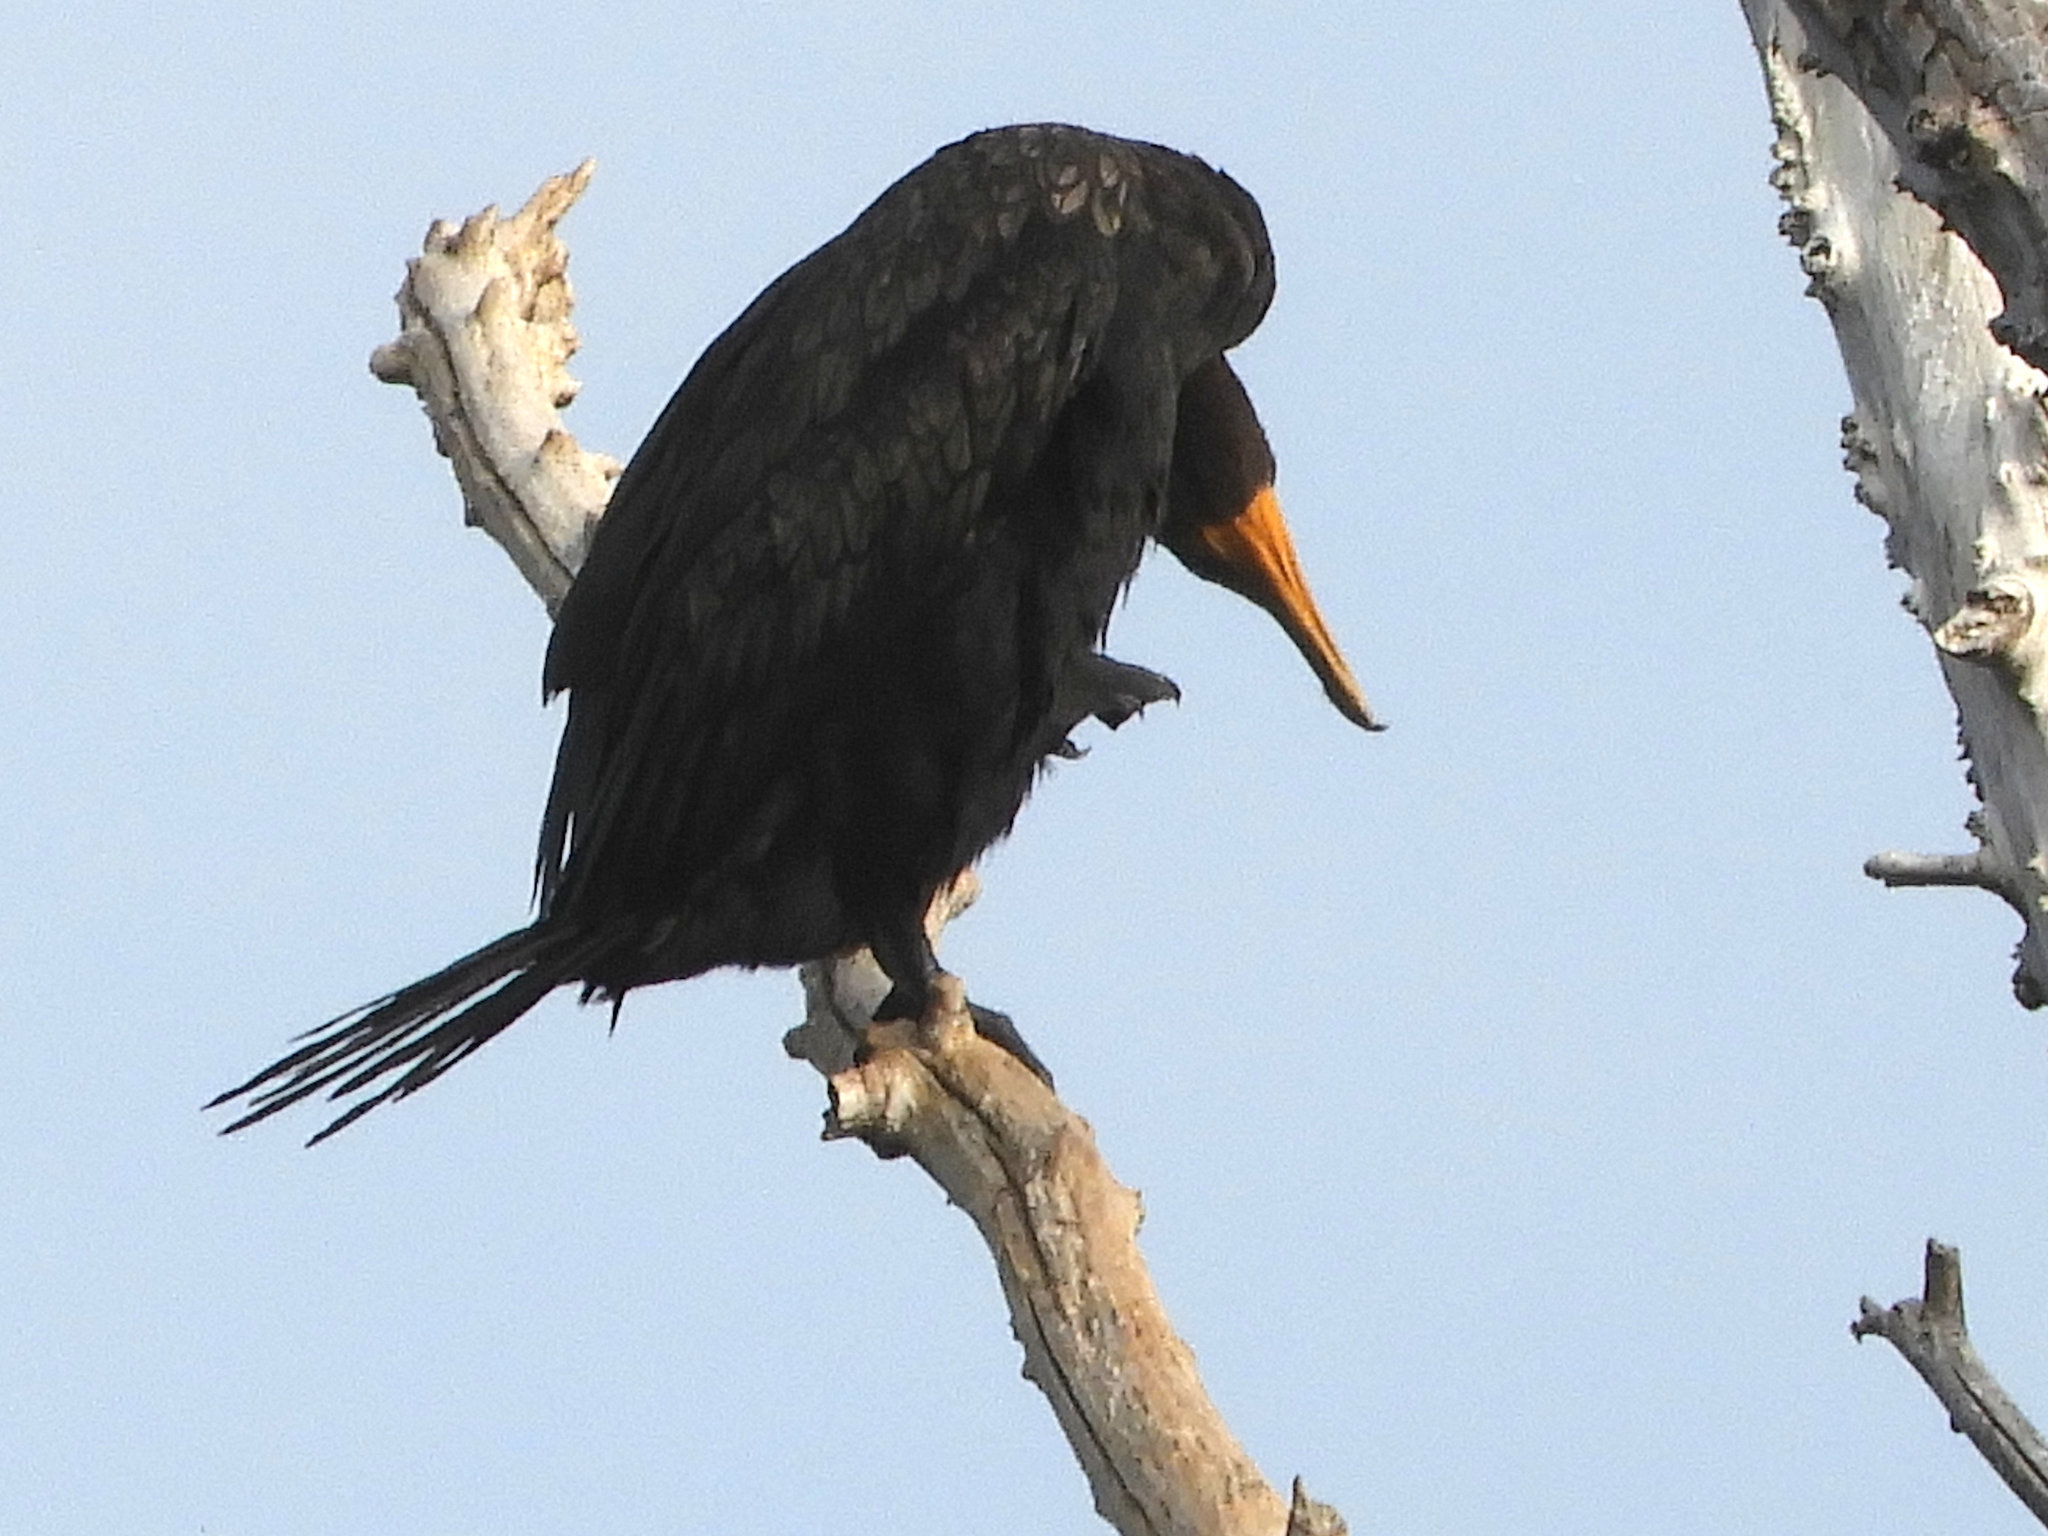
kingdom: Animalia
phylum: Chordata
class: Aves
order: Suliformes
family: Phalacrocoracidae
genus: Phalacrocorax
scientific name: Phalacrocorax auritus
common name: Double-crested cormorant
